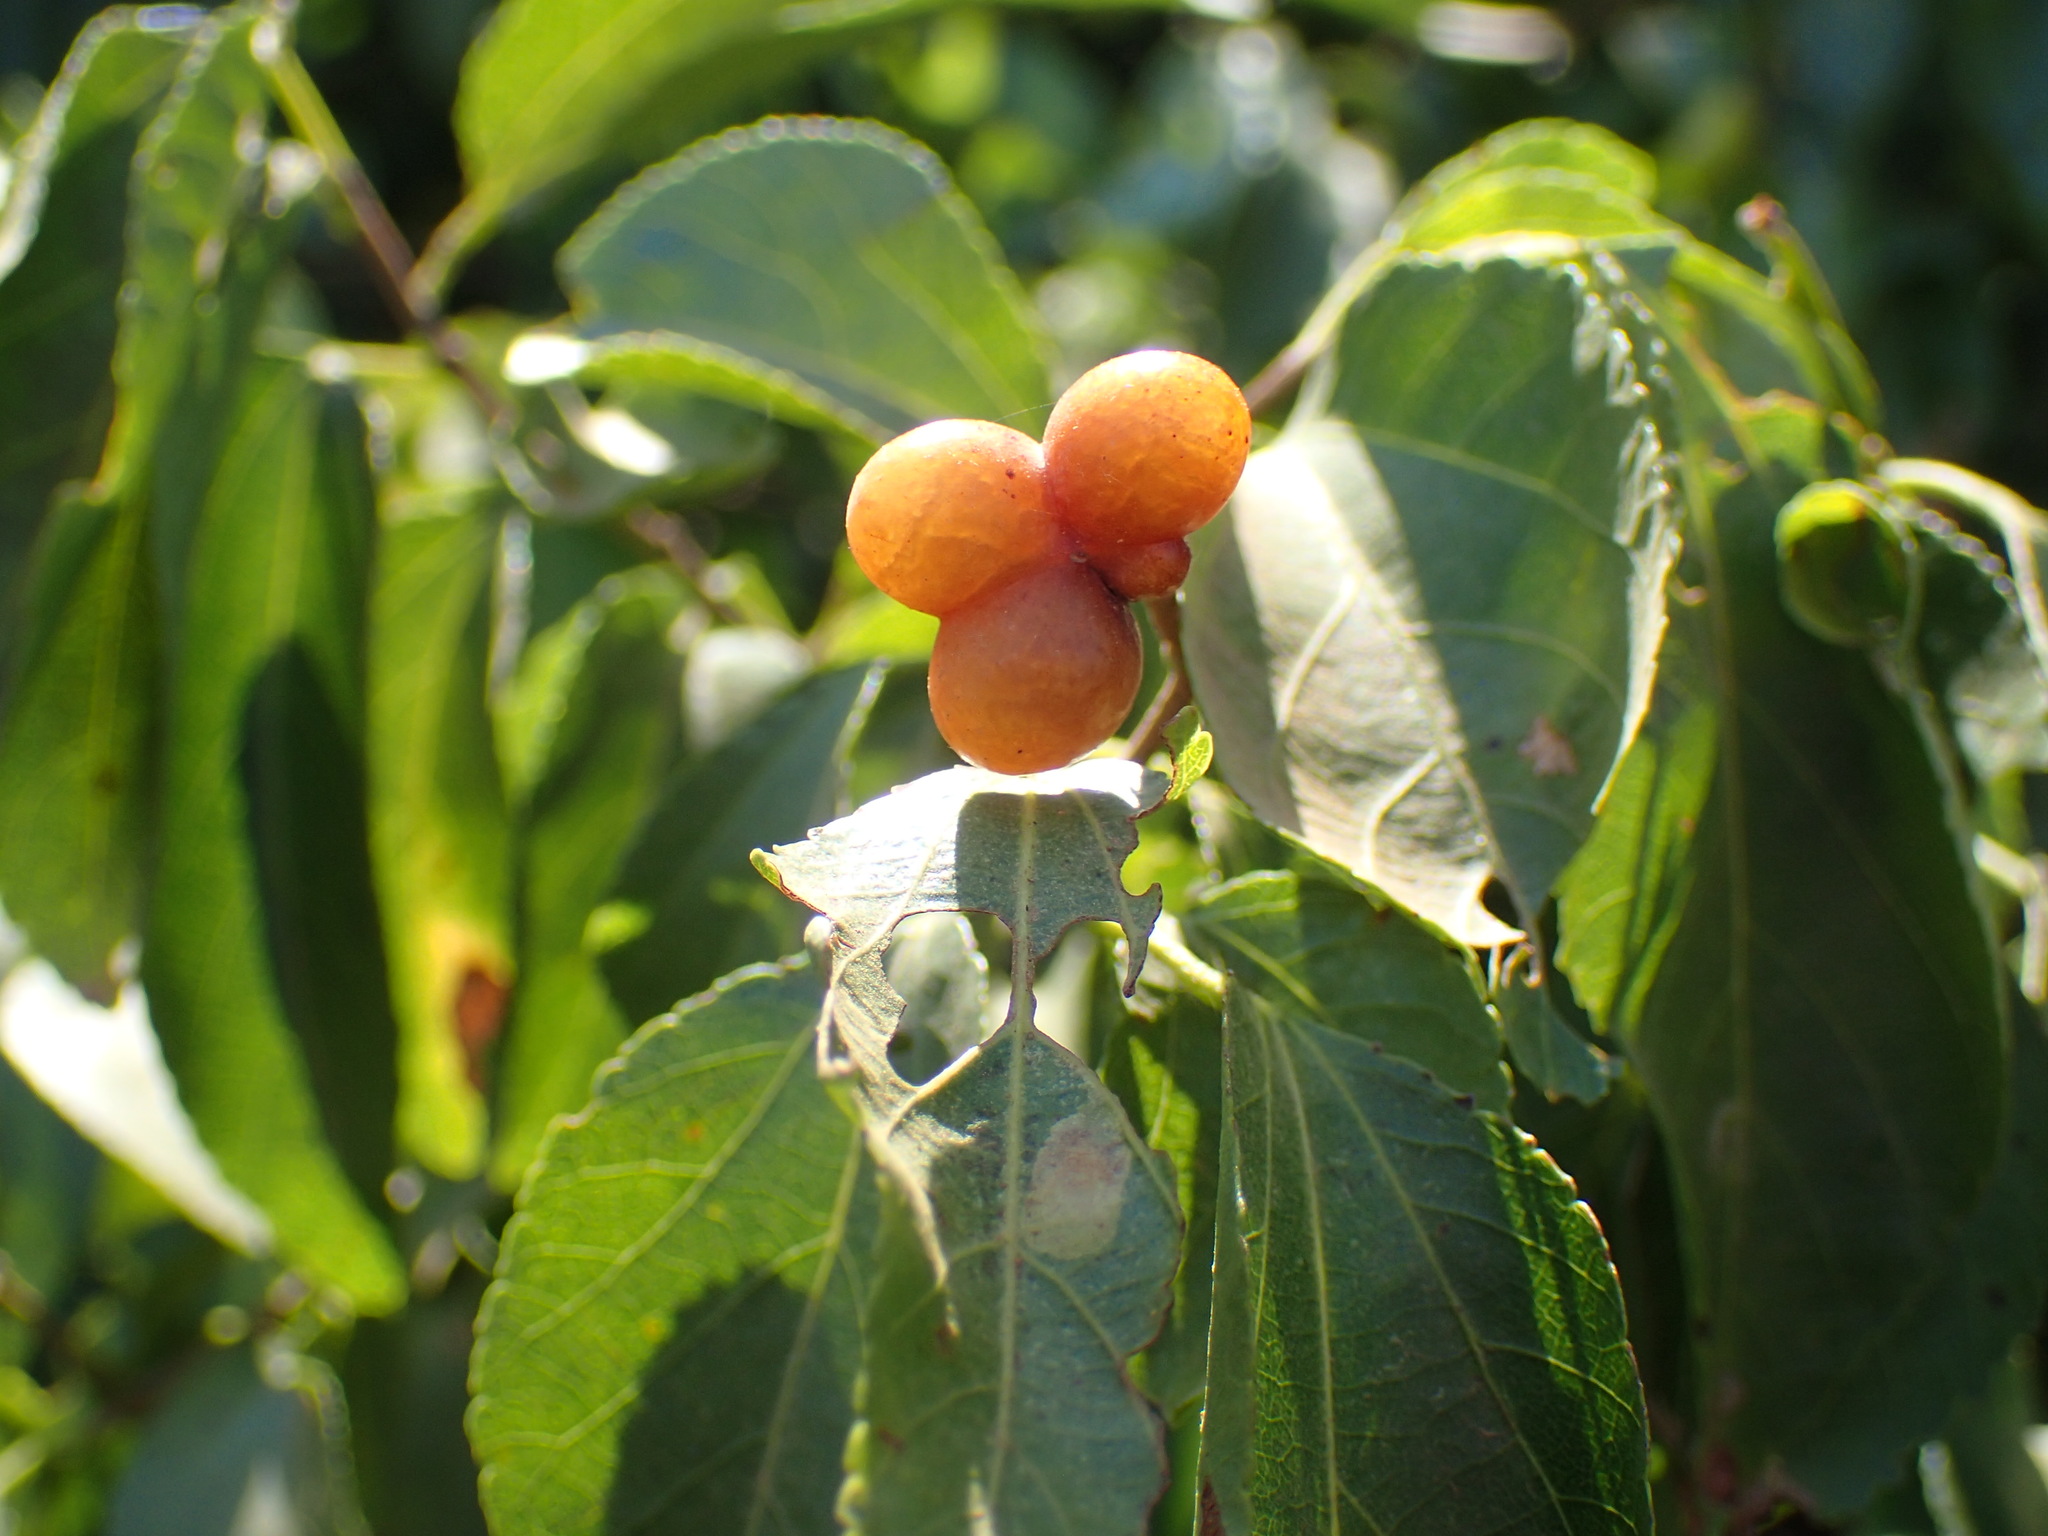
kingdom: Plantae
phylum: Tracheophyta
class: Magnoliopsida
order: Malvales
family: Malvaceae
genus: Grewia
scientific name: Grewia occidentalis
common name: Crossberry
